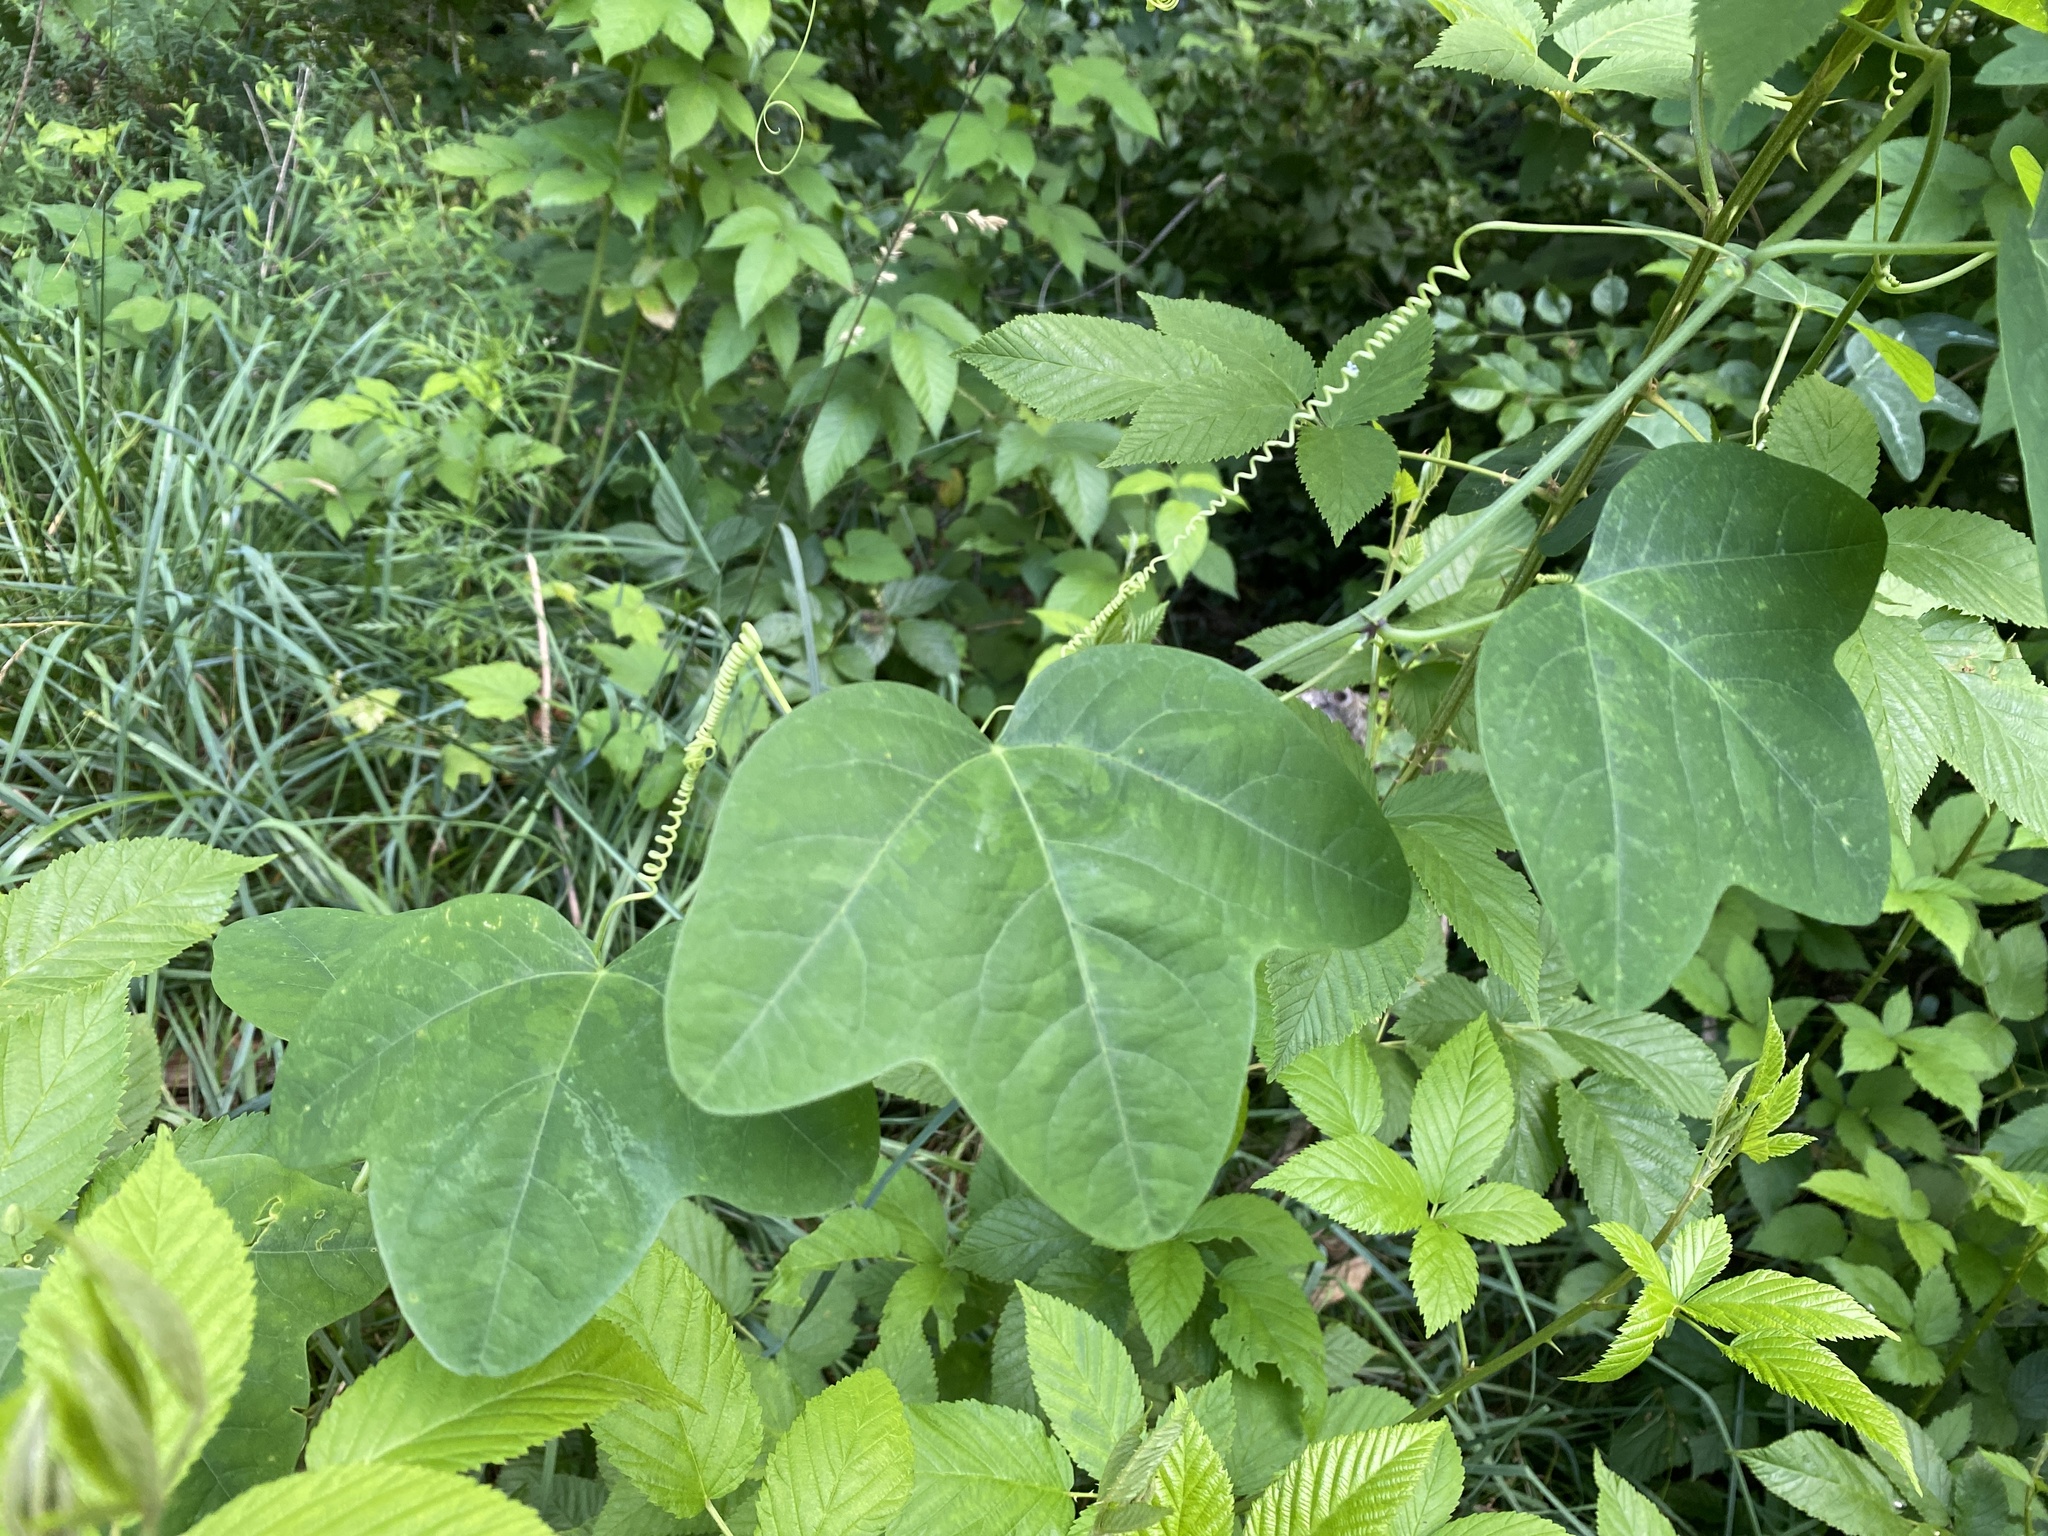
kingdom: Plantae
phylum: Tracheophyta
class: Magnoliopsida
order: Malpighiales
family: Passifloraceae
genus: Passiflora
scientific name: Passiflora lutea
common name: Yellow passionflower
